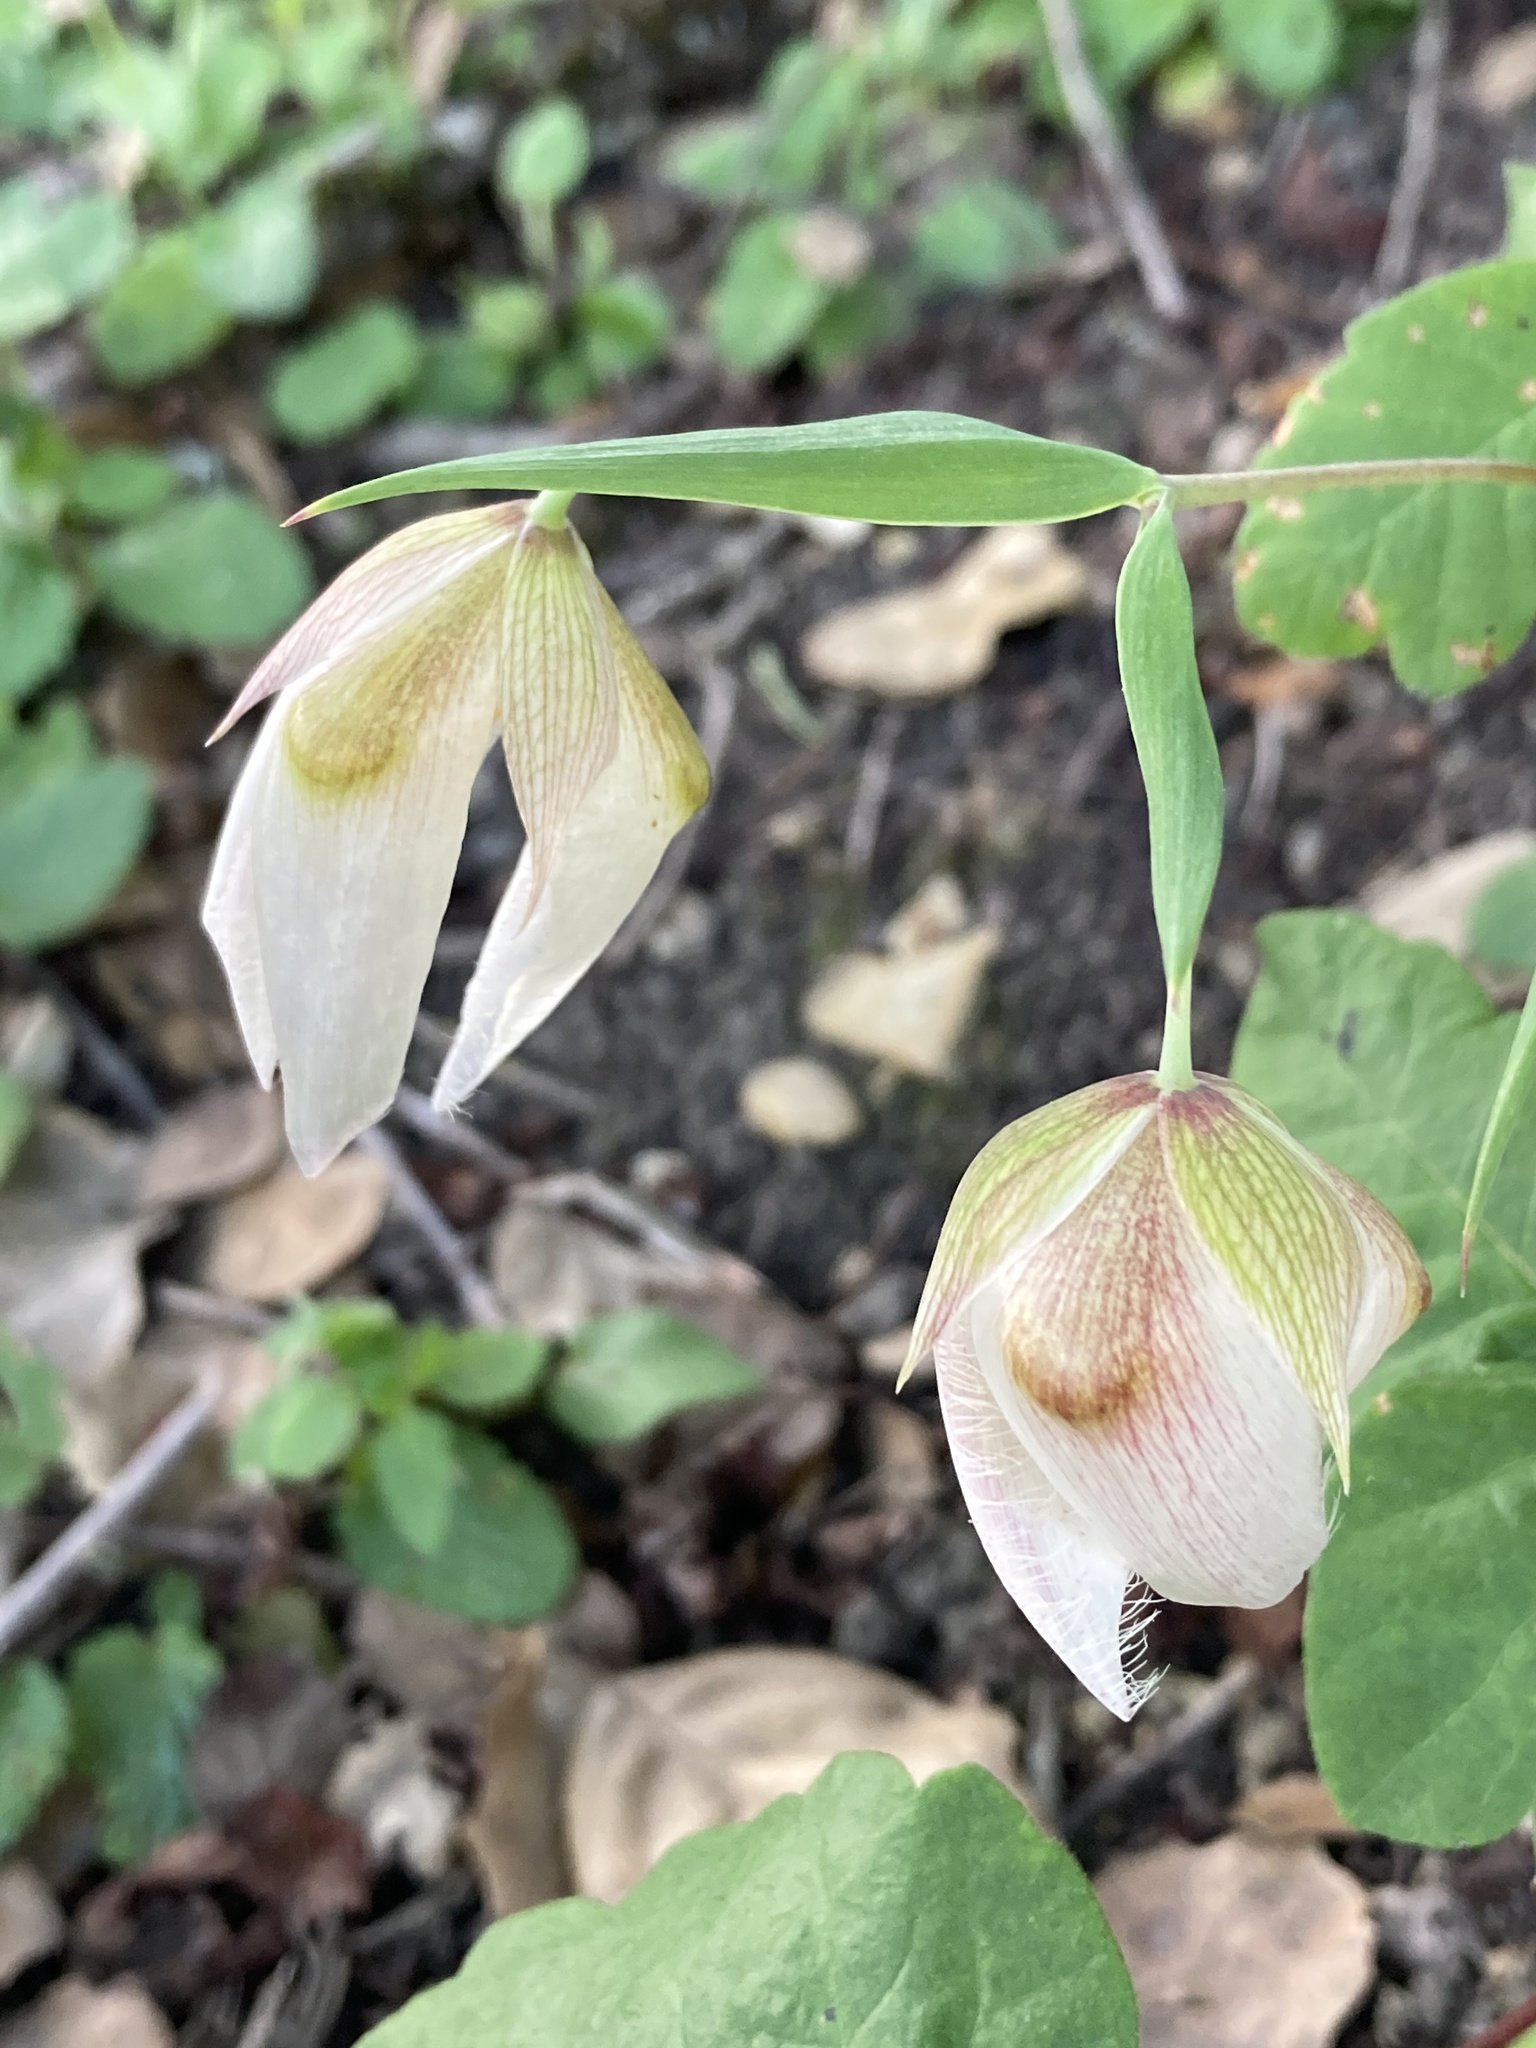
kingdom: Plantae
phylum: Tracheophyta
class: Liliopsida
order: Liliales
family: Liliaceae
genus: Calochortus
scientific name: Calochortus albus
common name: Fairy-lantern
